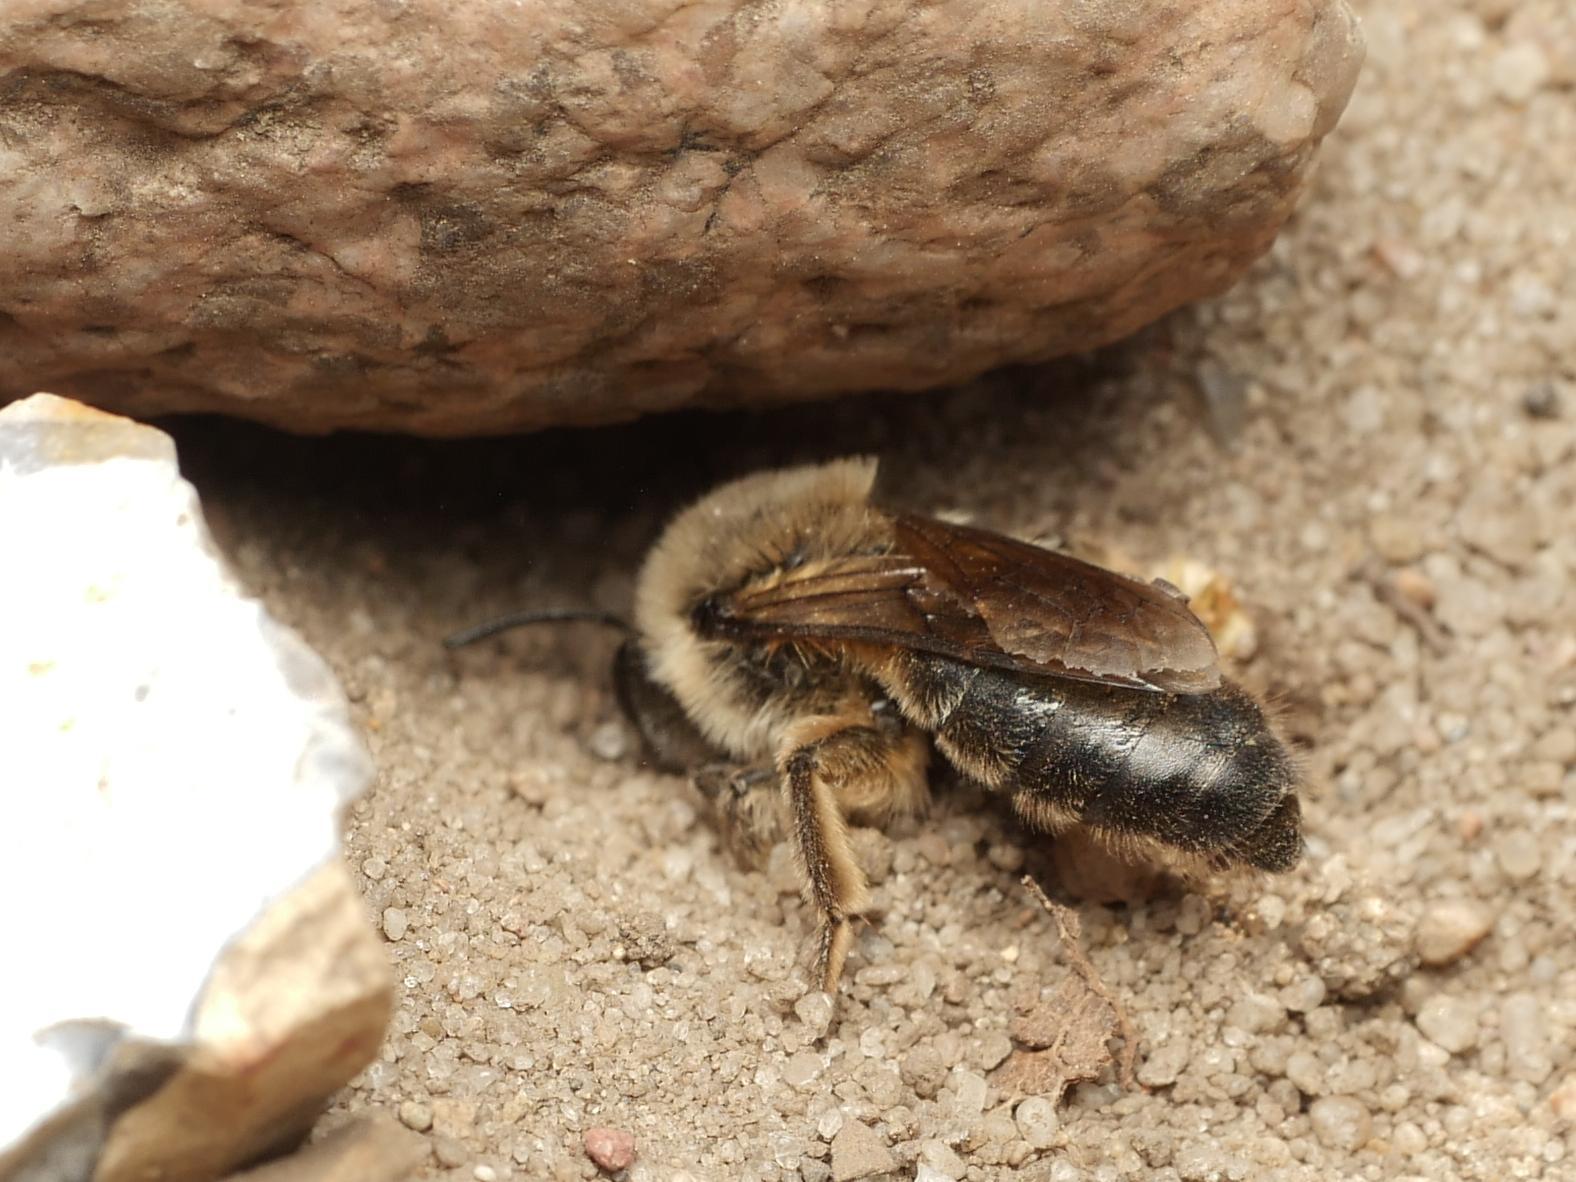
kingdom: Animalia
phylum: Arthropoda
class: Insecta
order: Hymenoptera
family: Colletidae
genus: Colletes
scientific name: Colletes cunicularius
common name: Early colletes
